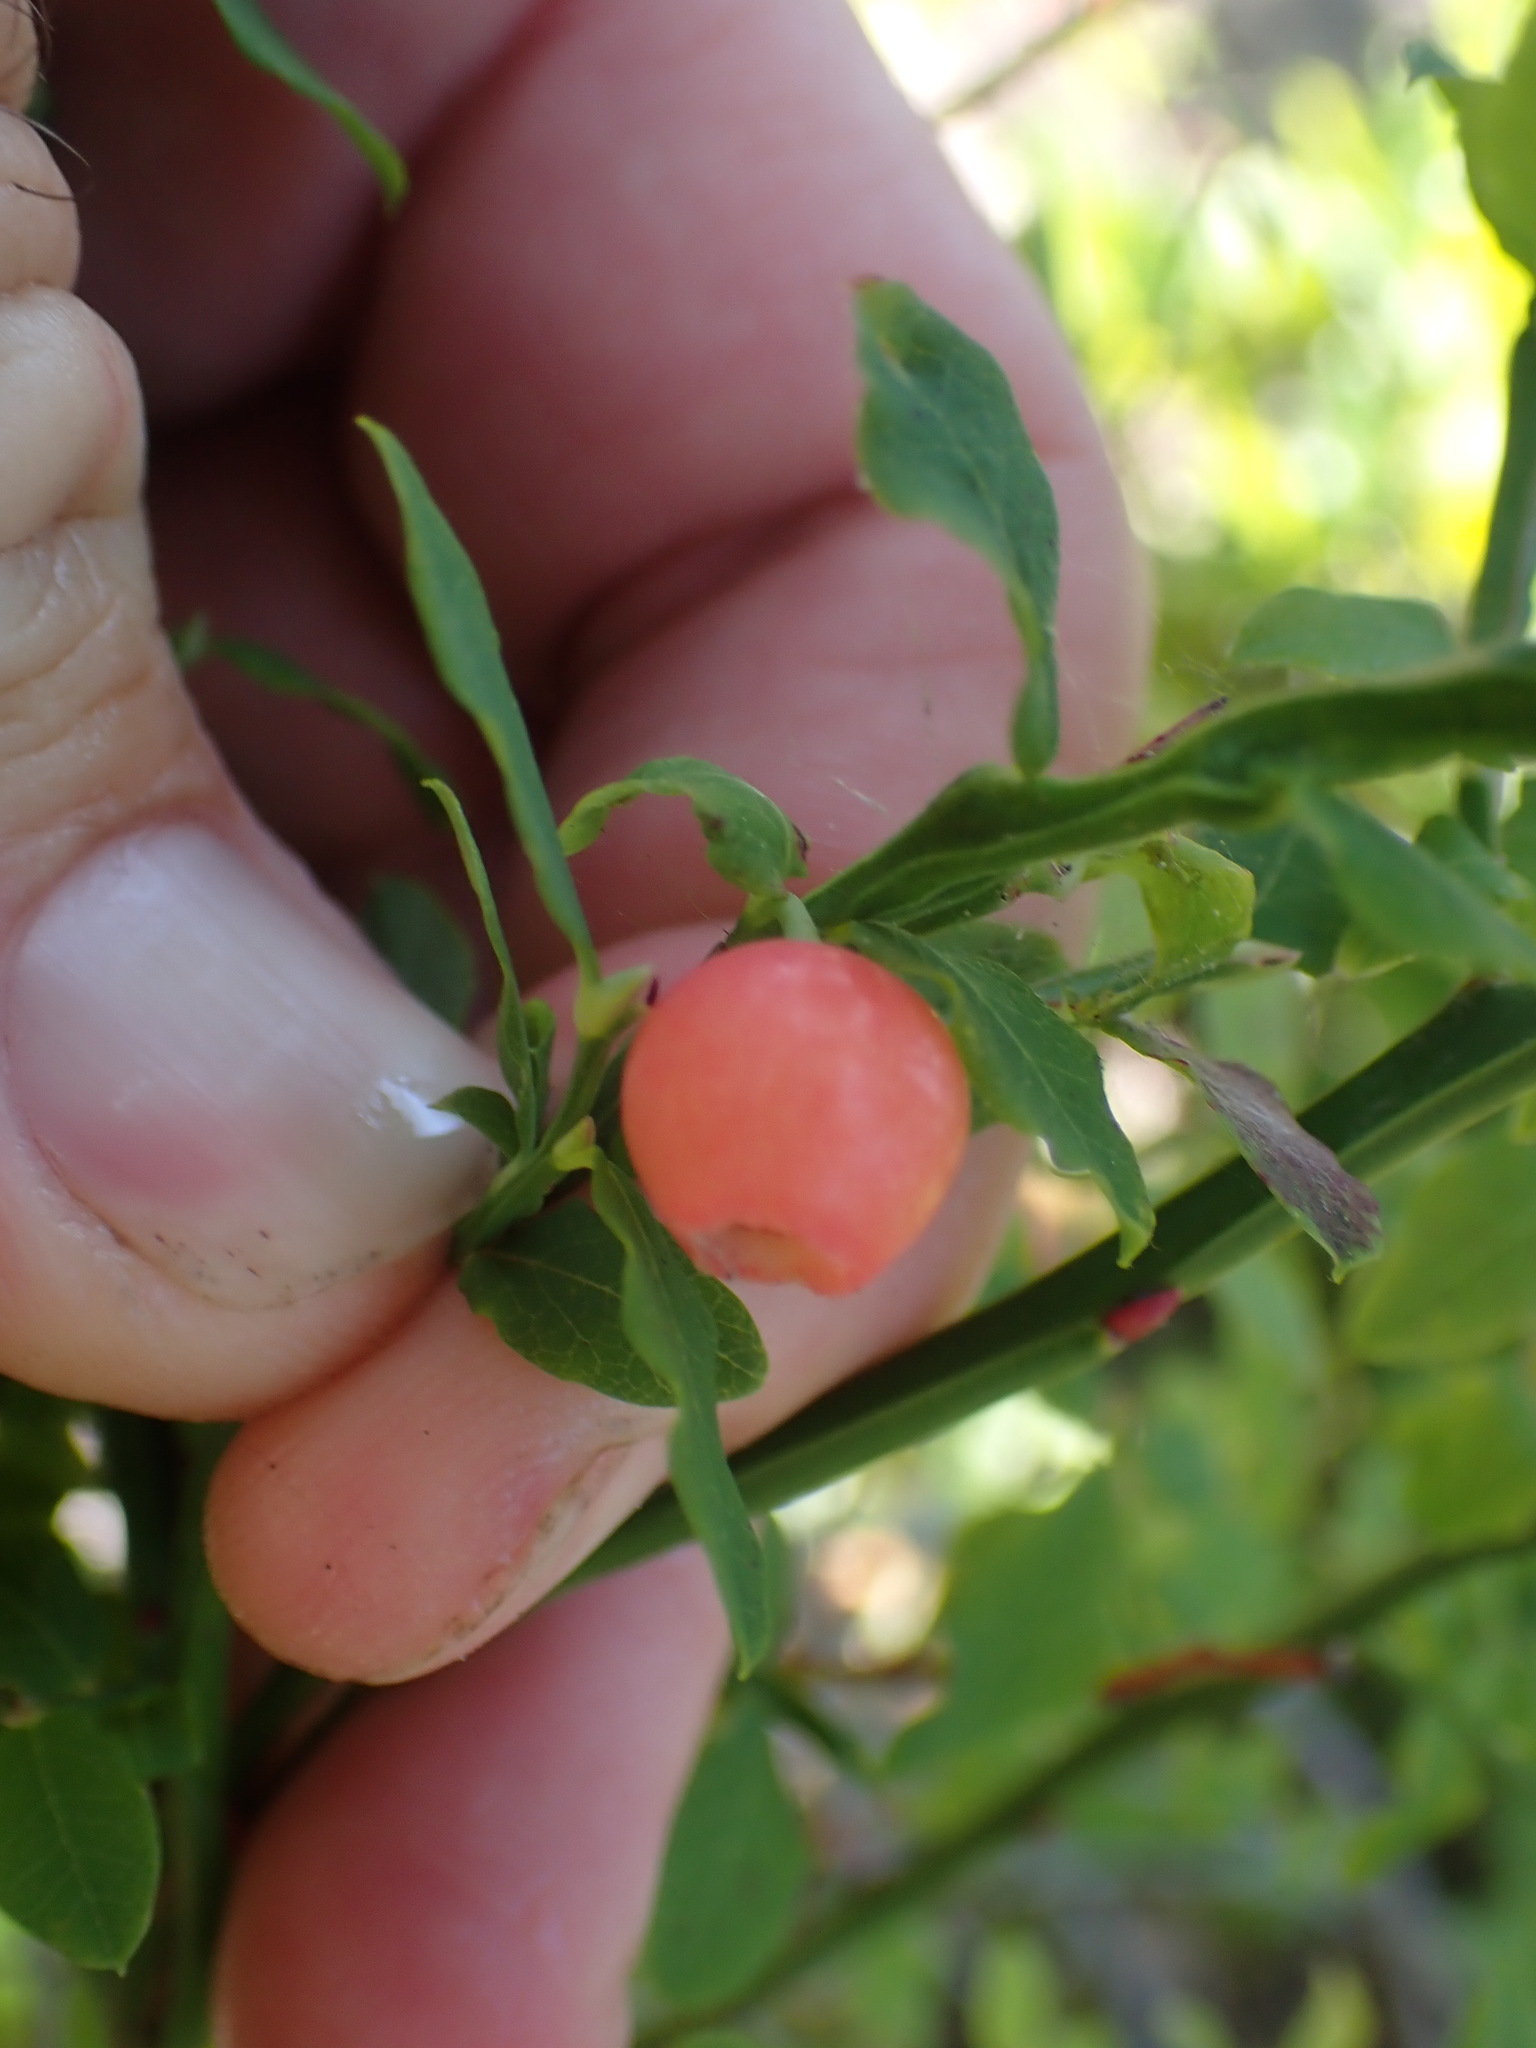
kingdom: Plantae
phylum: Tracheophyta
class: Magnoliopsida
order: Ericales
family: Ericaceae
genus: Vaccinium
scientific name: Vaccinium parvifolium
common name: Red-huckleberry
